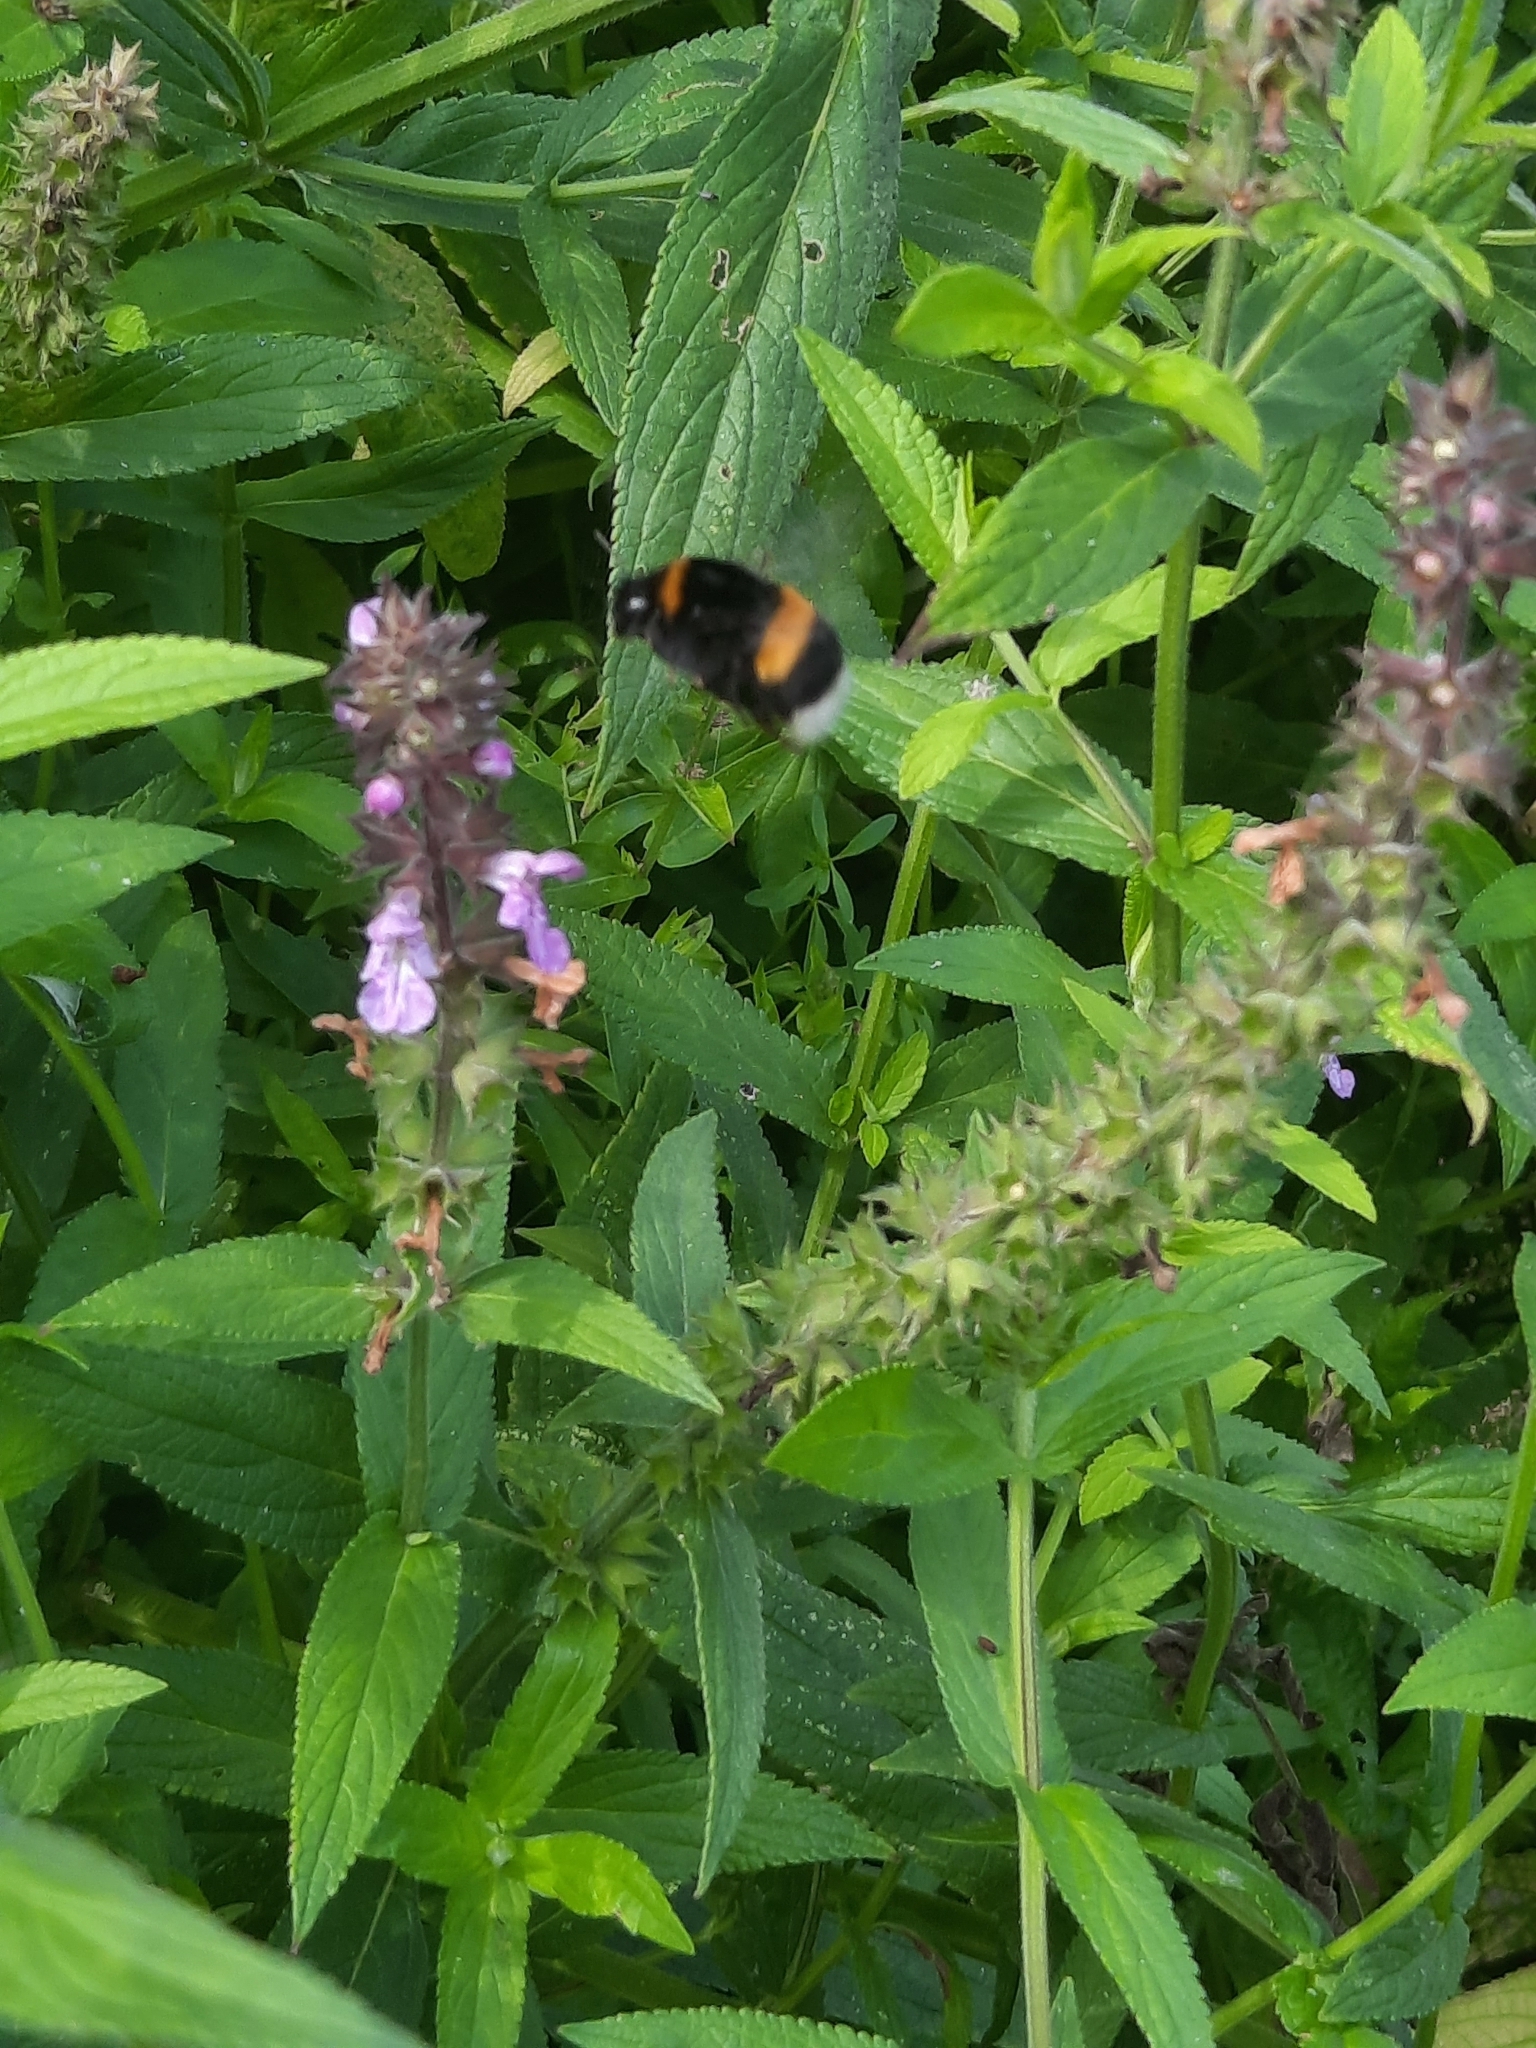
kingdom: Animalia
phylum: Arthropoda
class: Insecta
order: Hymenoptera
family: Apidae
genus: Bombus
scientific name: Bombus
